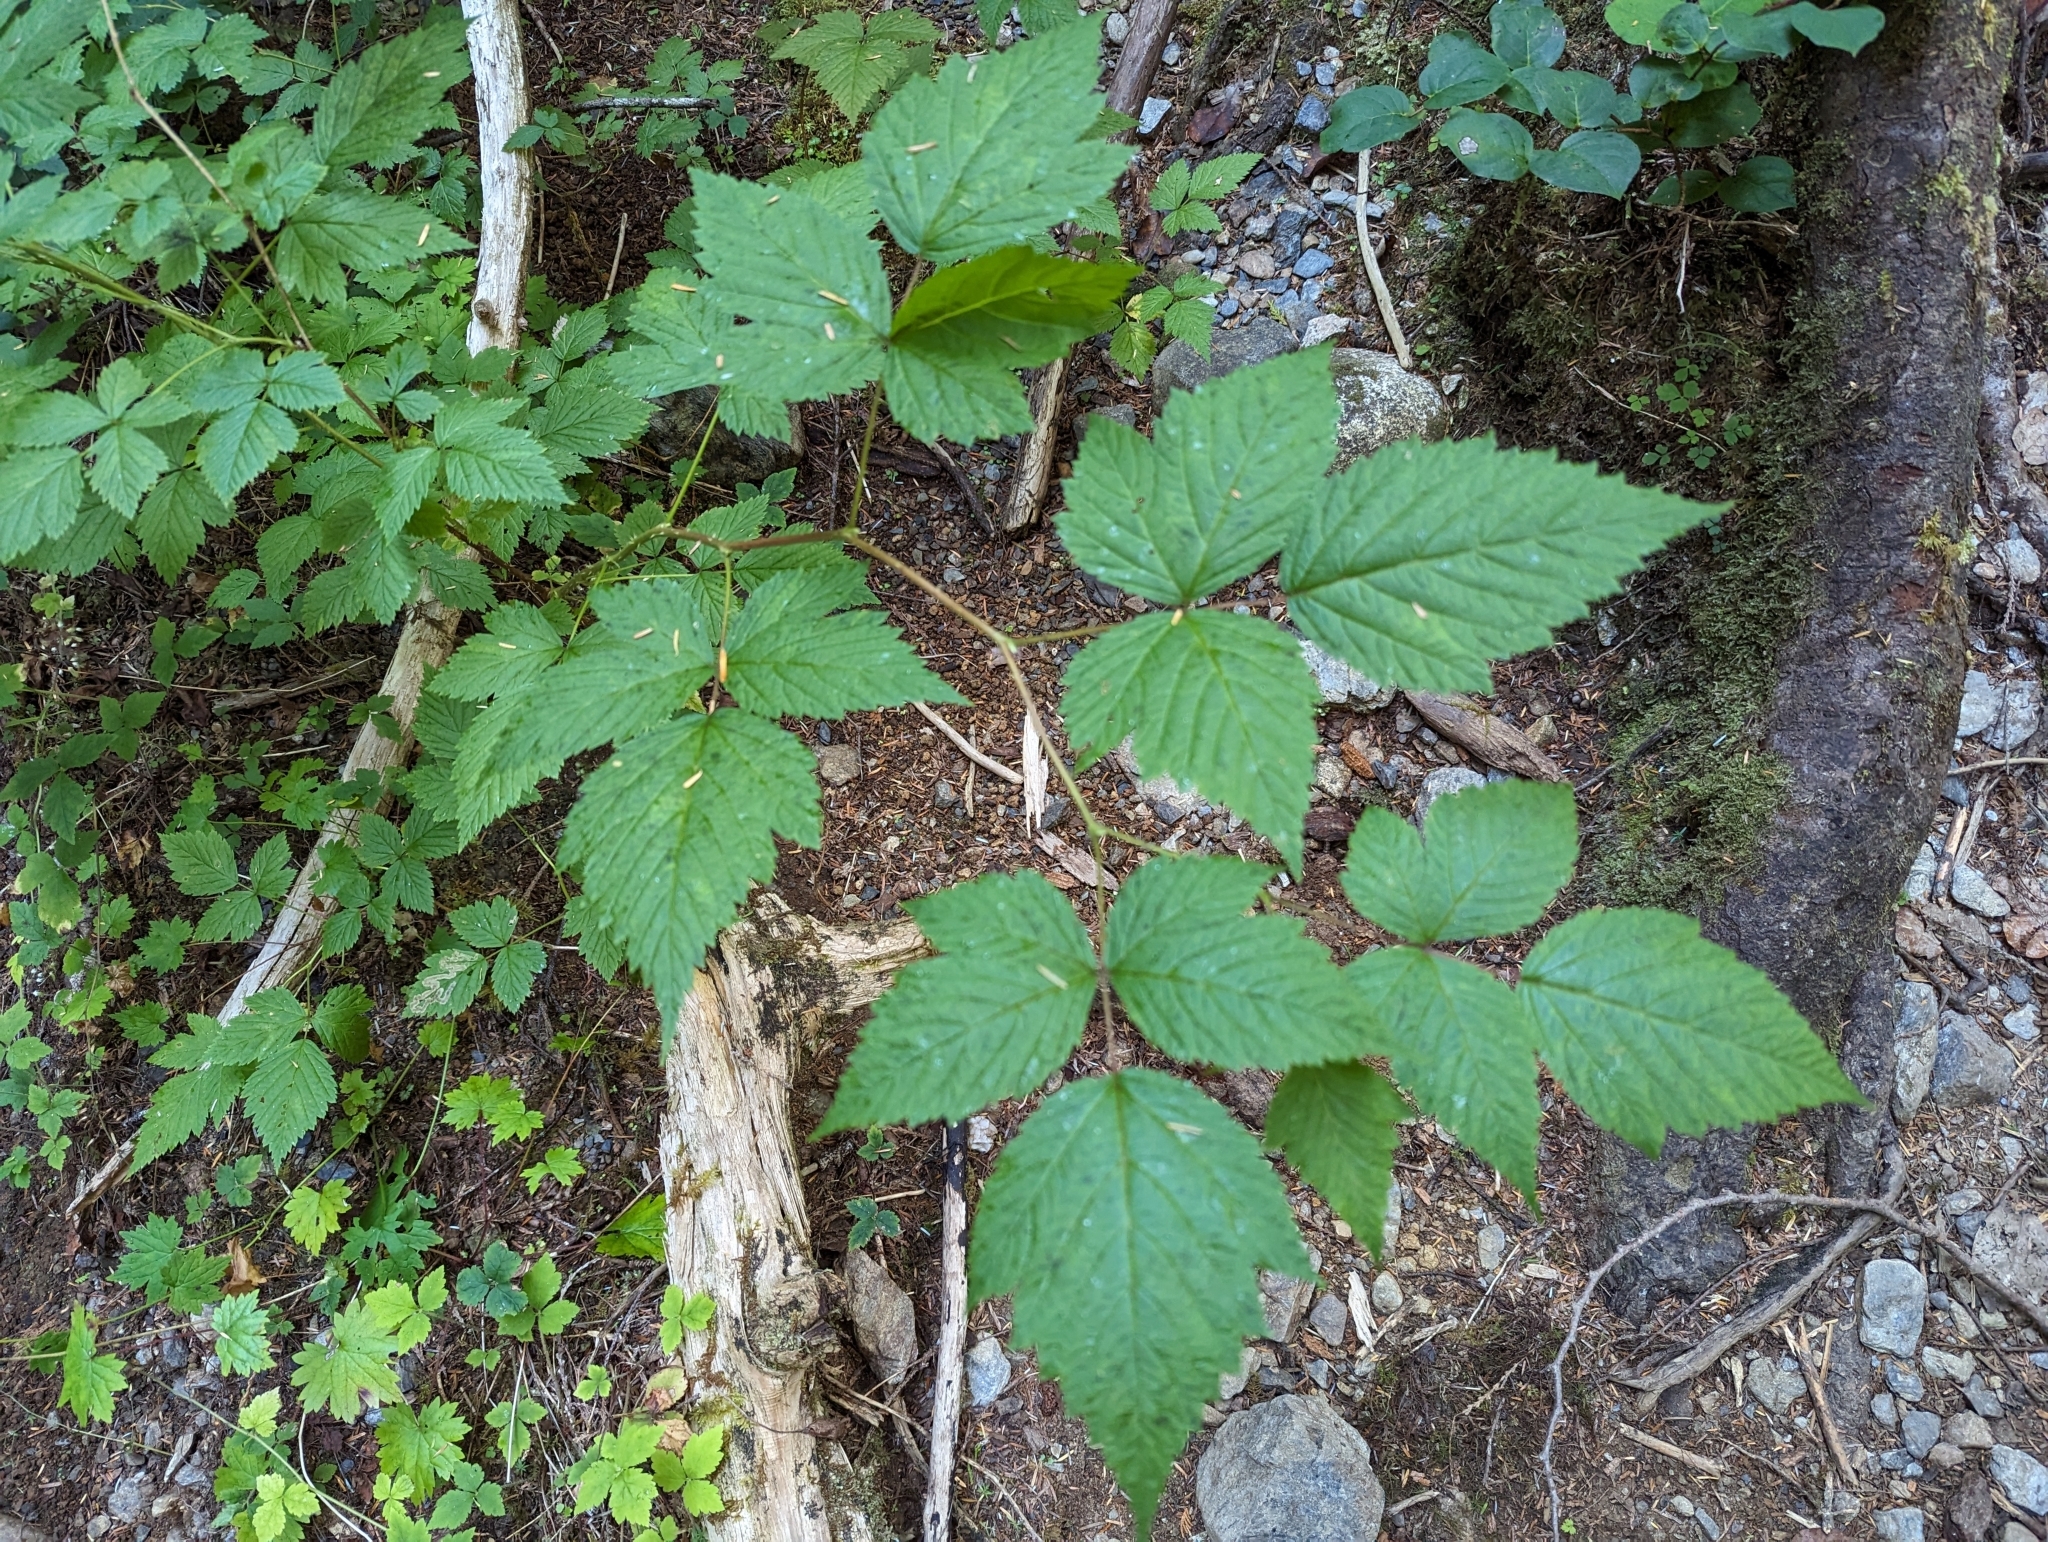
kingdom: Plantae
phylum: Tracheophyta
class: Magnoliopsida
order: Rosales
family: Rosaceae
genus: Rubus
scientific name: Rubus spectabilis
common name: Salmonberry
